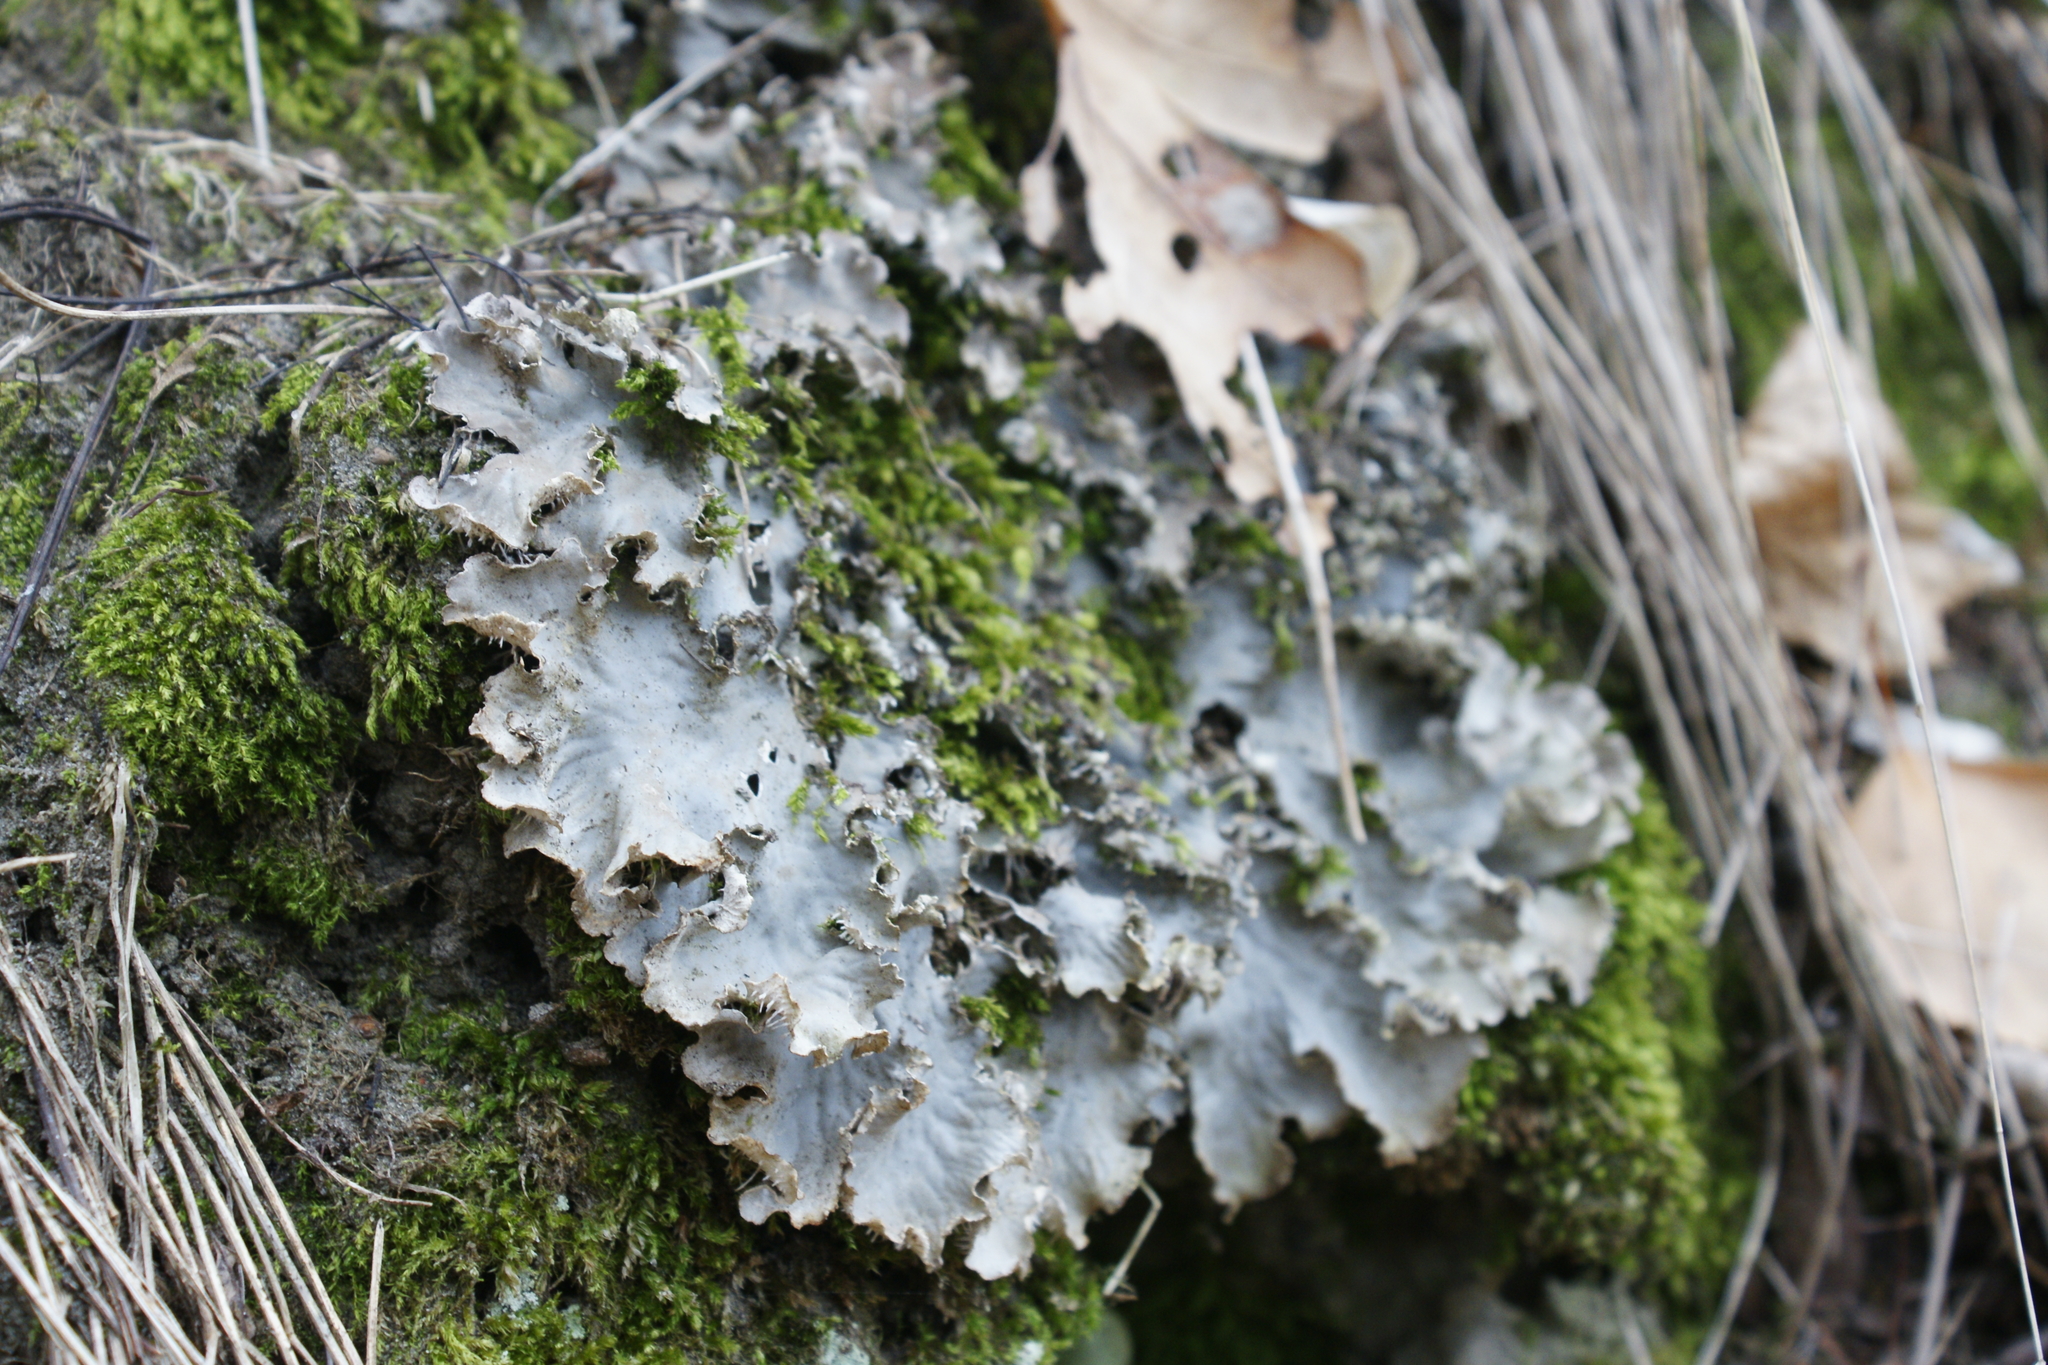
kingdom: Fungi
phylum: Ascomycota
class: Lecanoromycetes
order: Peltigerales
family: Peltigeraceae
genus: Peltigera
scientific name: Peltigera rufescens
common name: Field dog lichen
